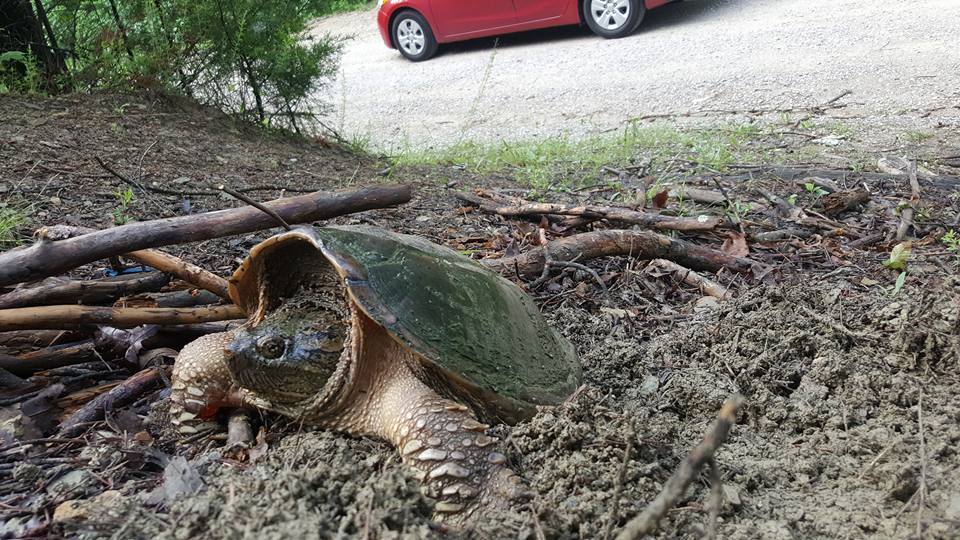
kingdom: Animalia
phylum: Chordata
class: Testudines
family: Chelydridae
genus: Chelydra
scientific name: Chelydra serpentina
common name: Common snapping turtle
